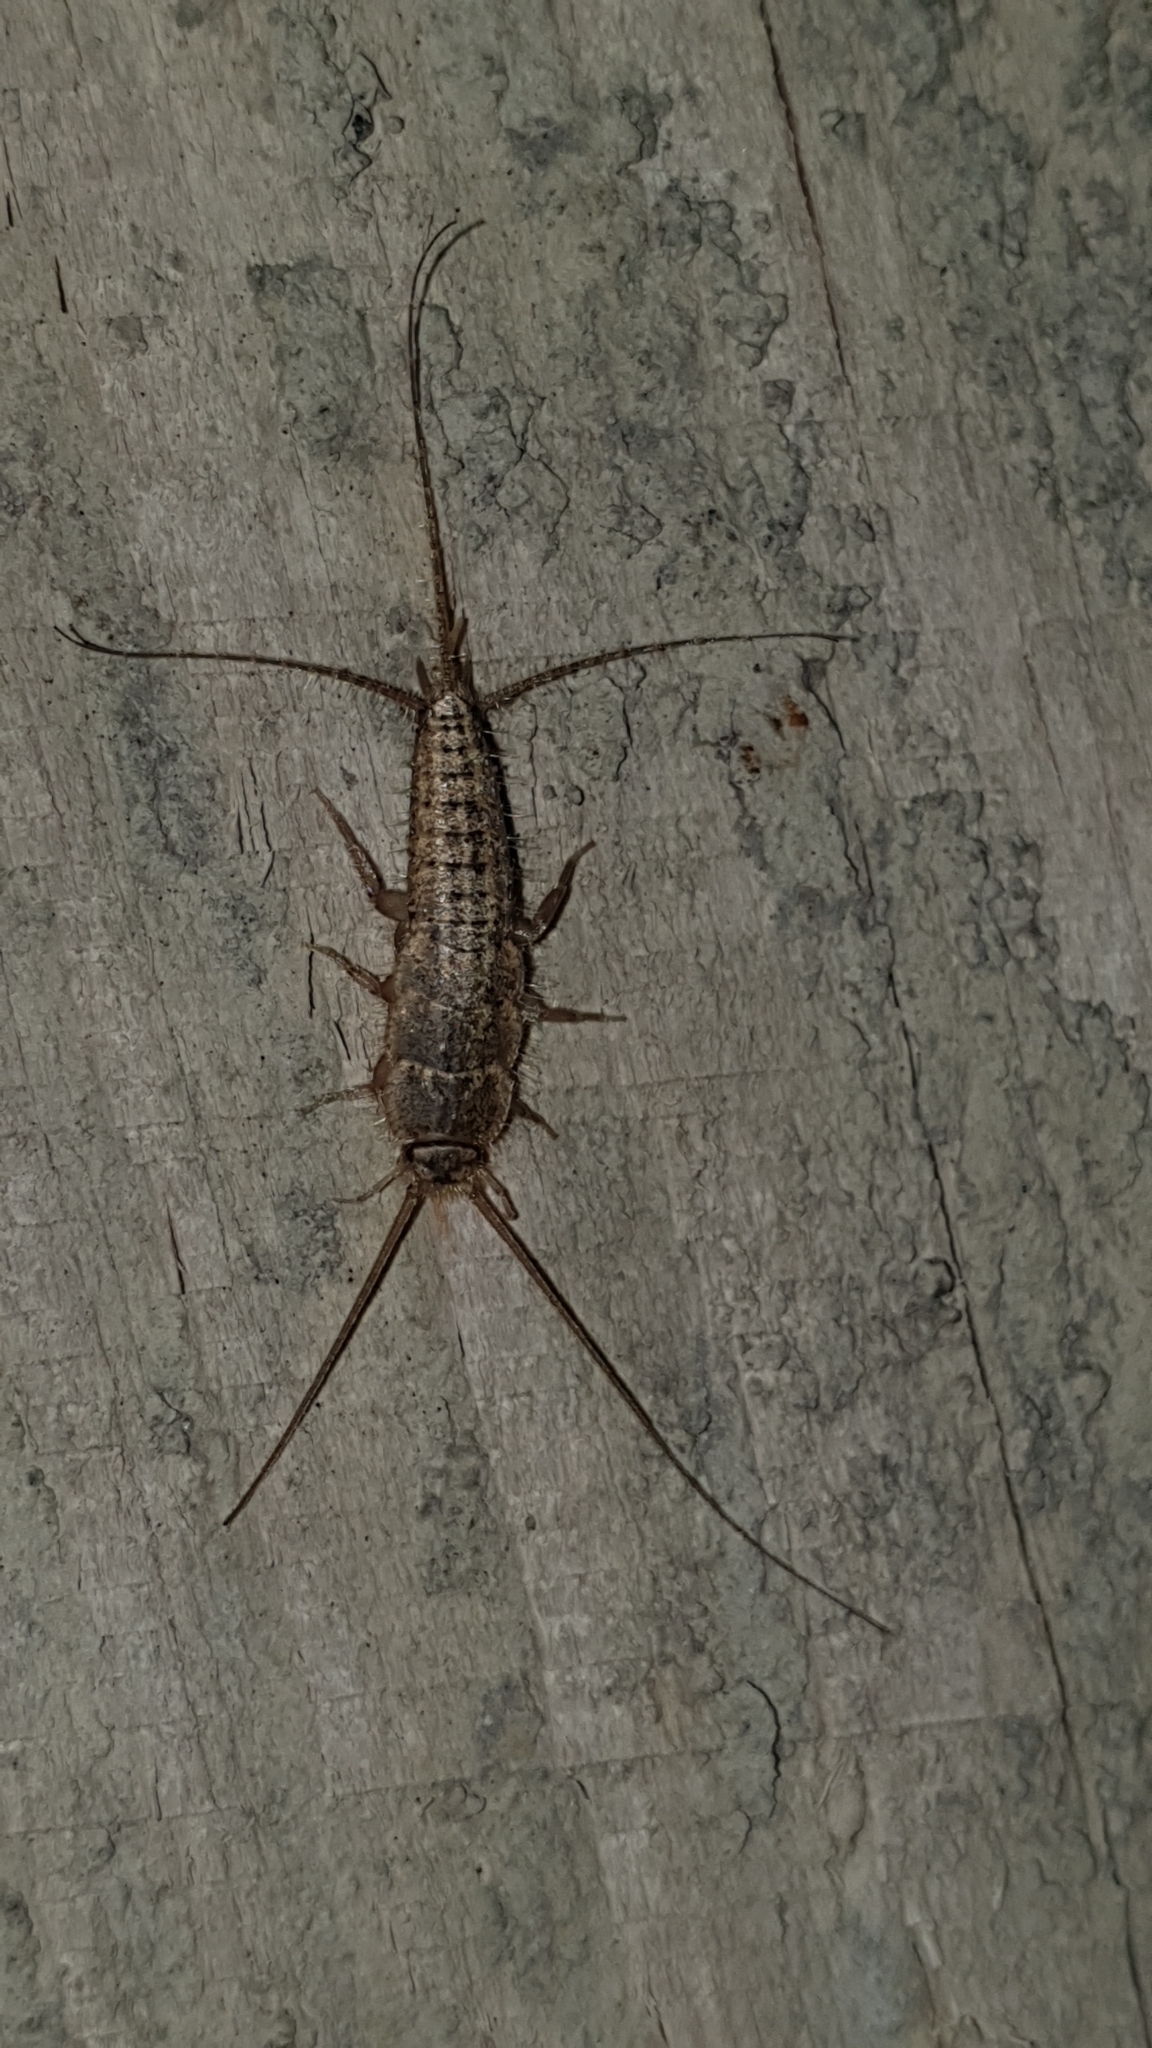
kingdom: Animalia
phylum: Arthropoda
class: Insecta
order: Zygentoma
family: Lepismatidae
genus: Ctenolepisma
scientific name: Ctenolepisma lineata
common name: Four-lined silverfish
